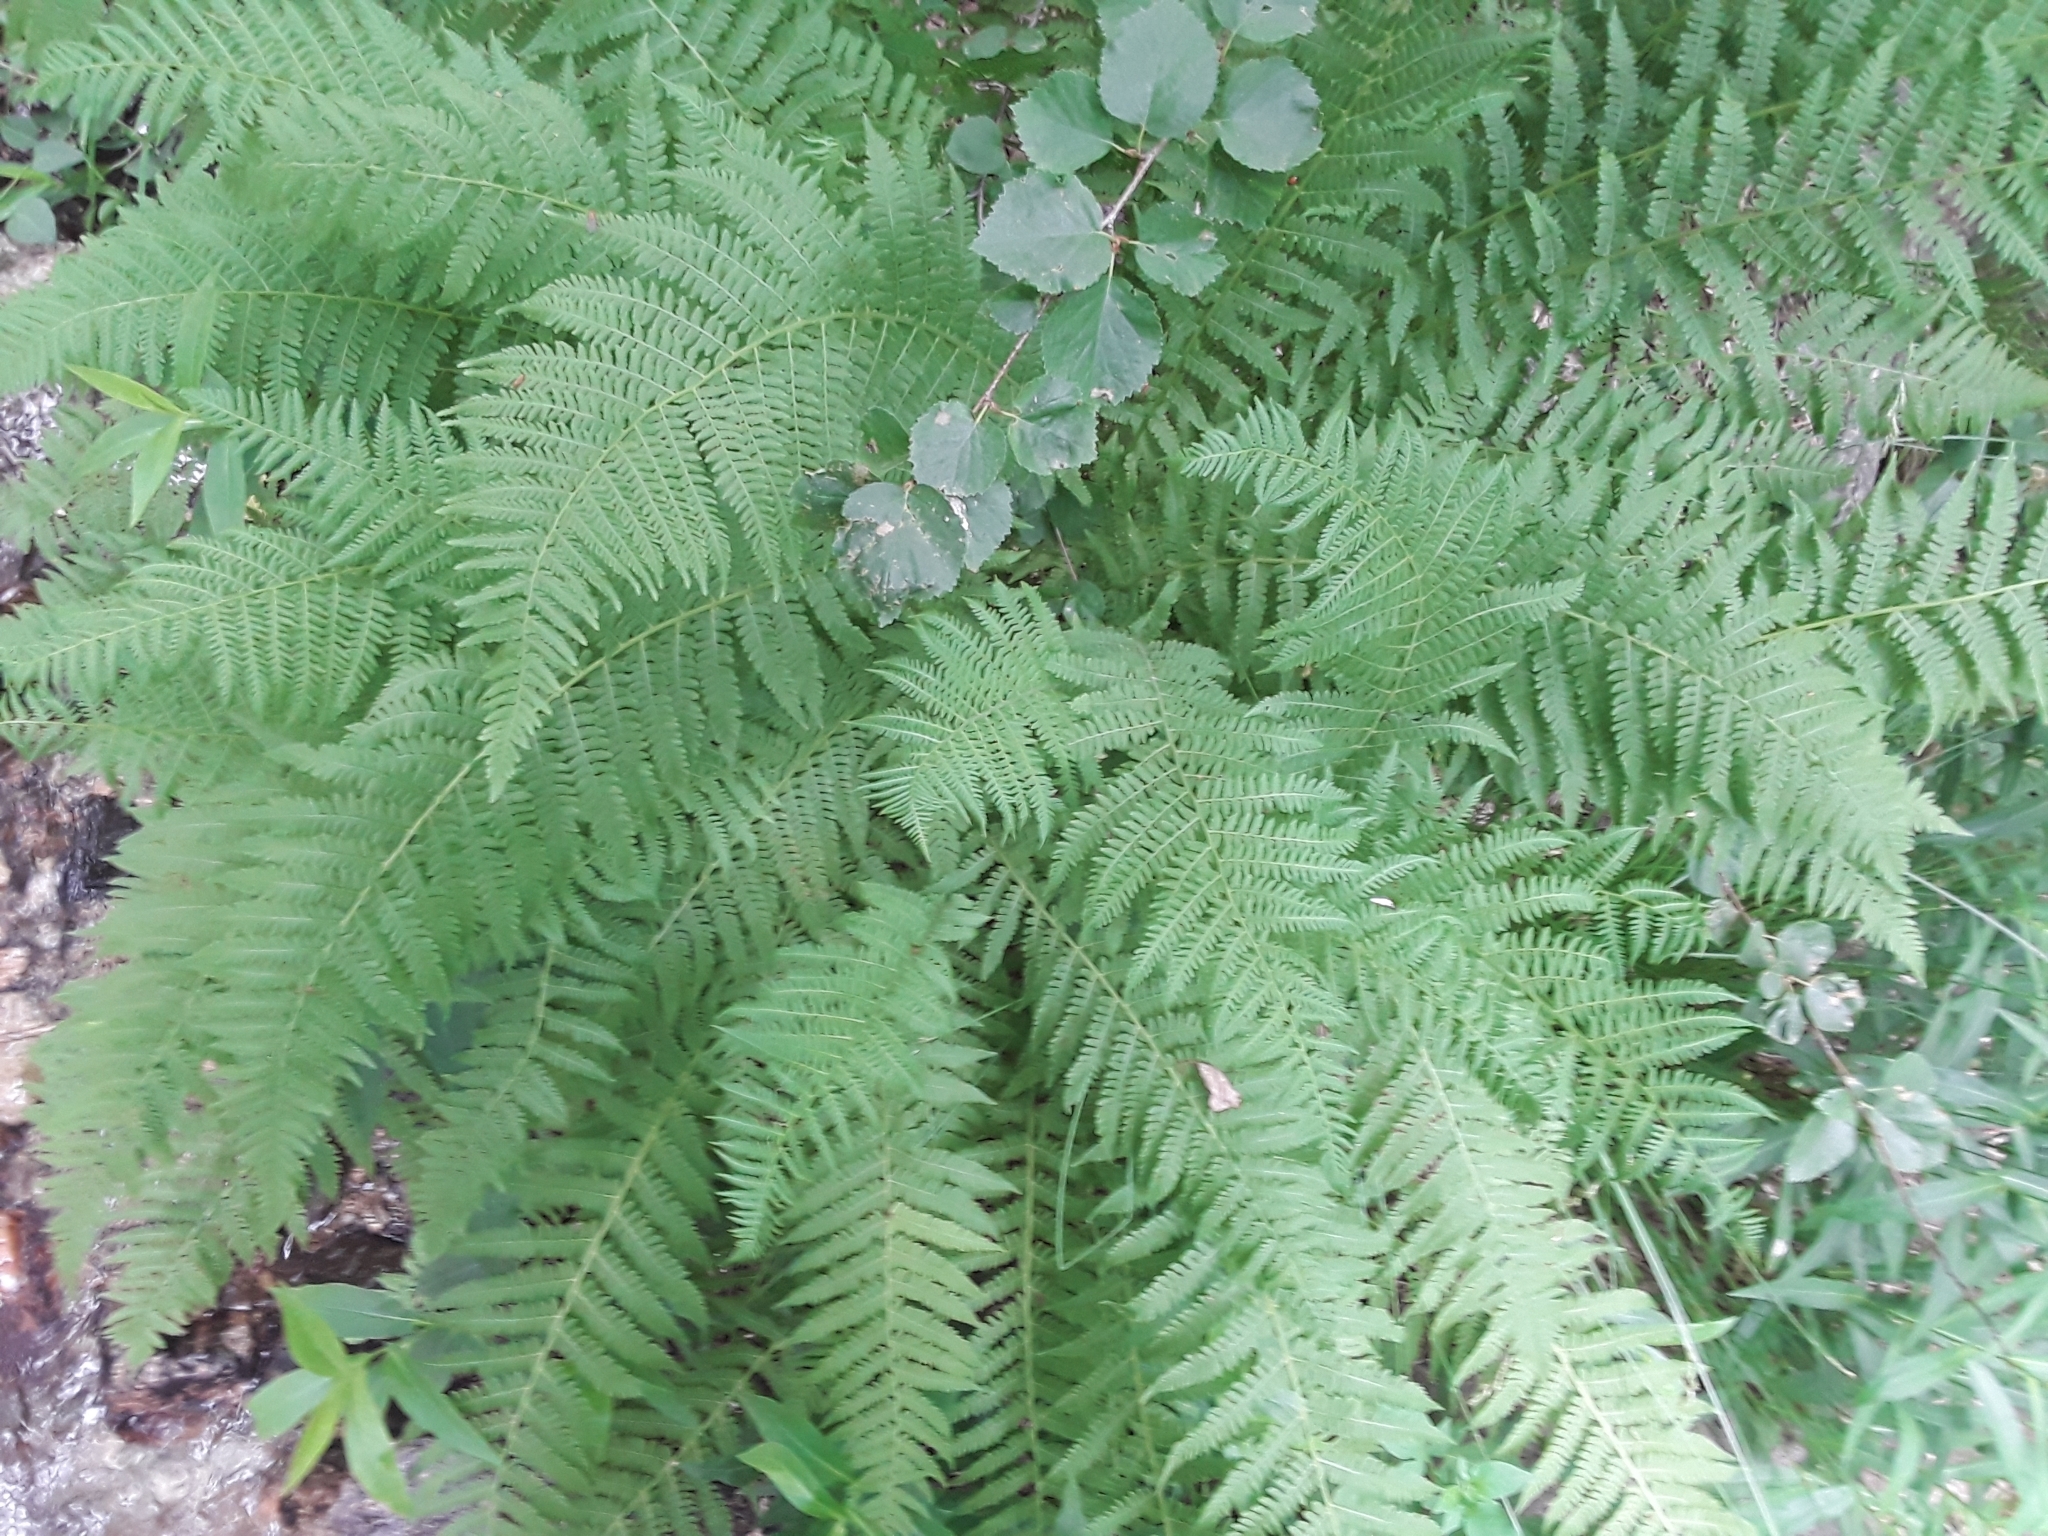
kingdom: Plantae
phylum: Tracheophyta
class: Polypodiopsida
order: Polypodiales
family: Athyriaceae
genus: Athyrium
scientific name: Athyrium cyclosorum
